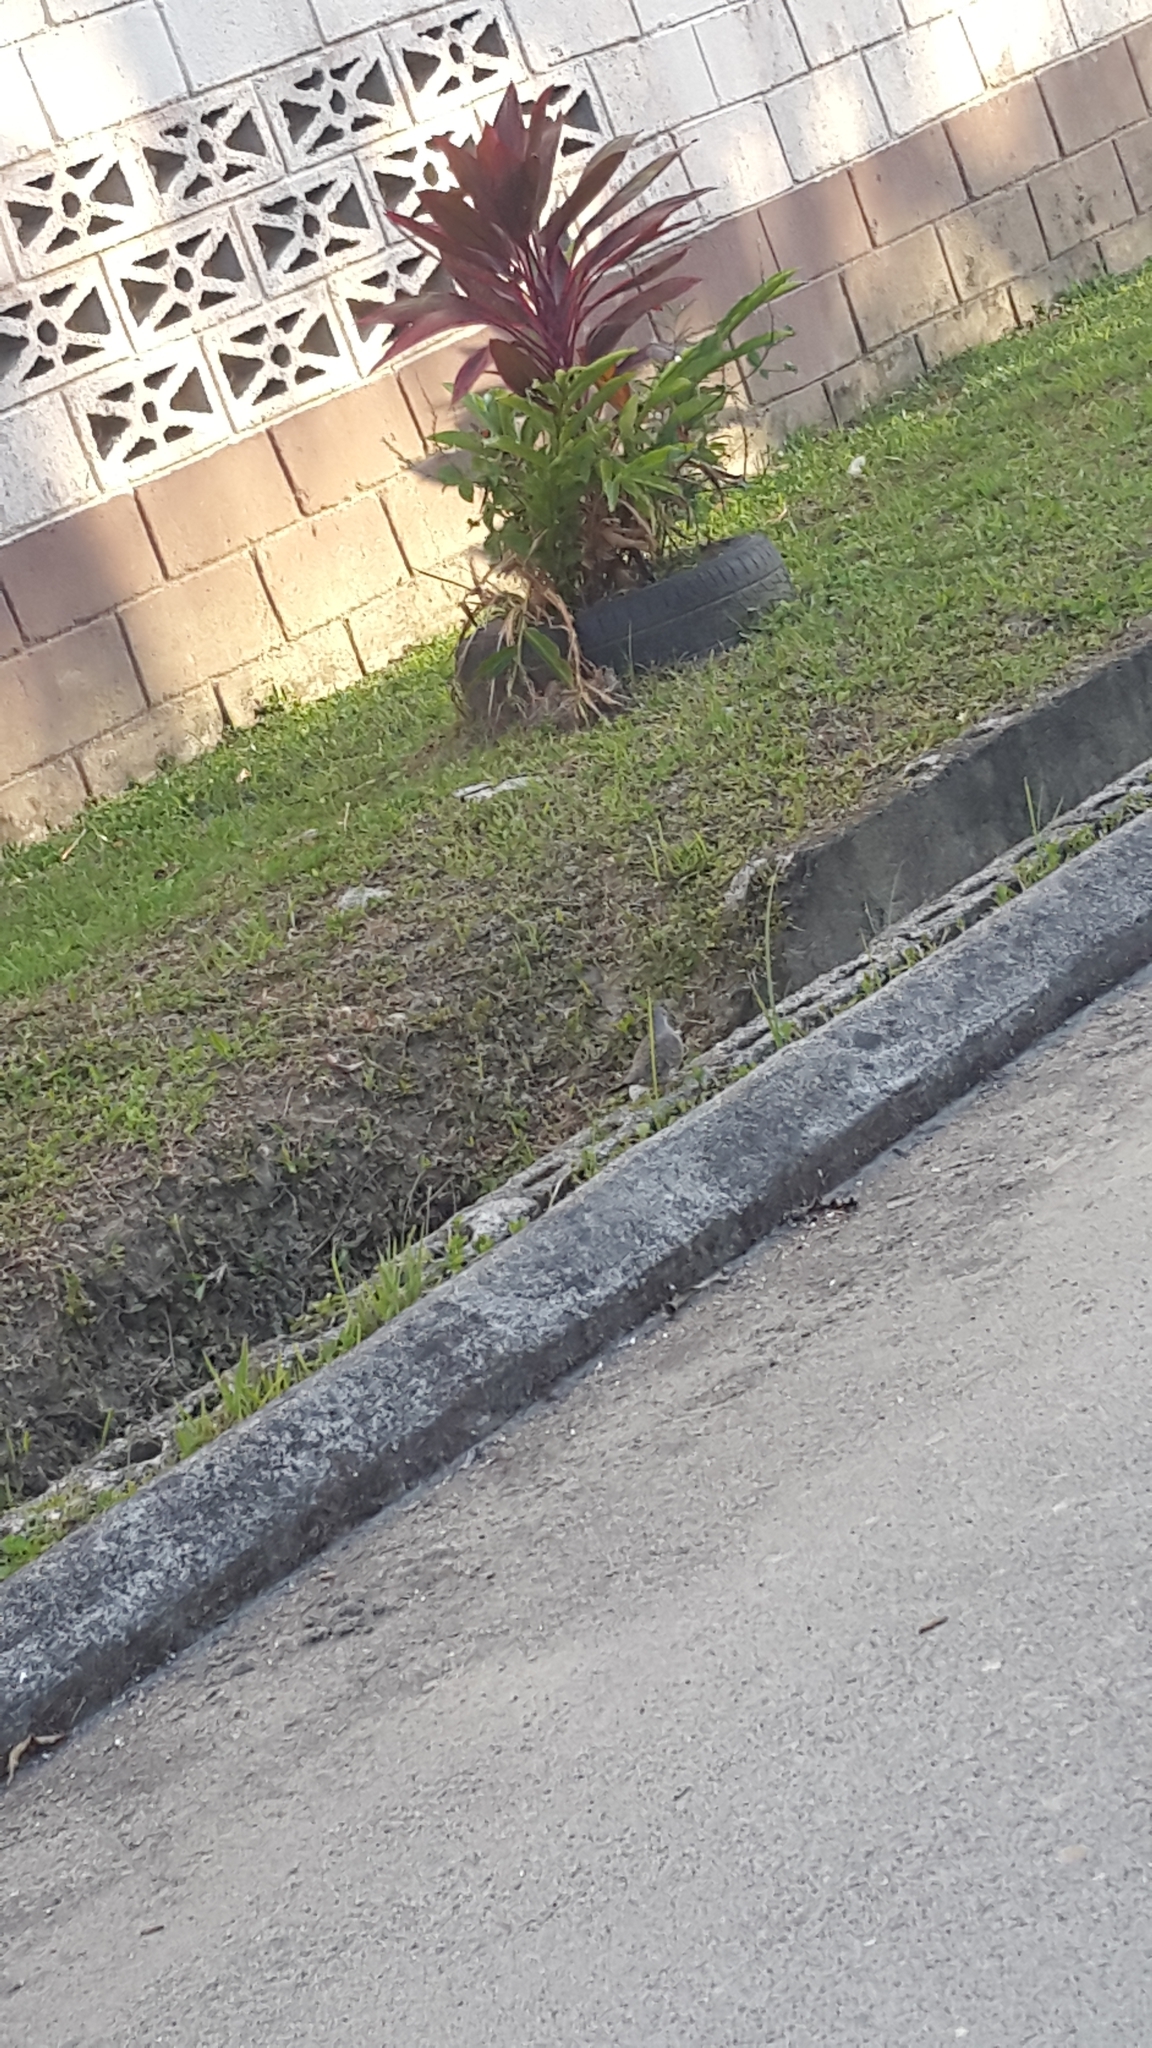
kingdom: Animalia
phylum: Chordata
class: Aves
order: Columbiformes
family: Columbidae
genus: Columbina
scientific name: Columbina inca
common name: Inca dove
